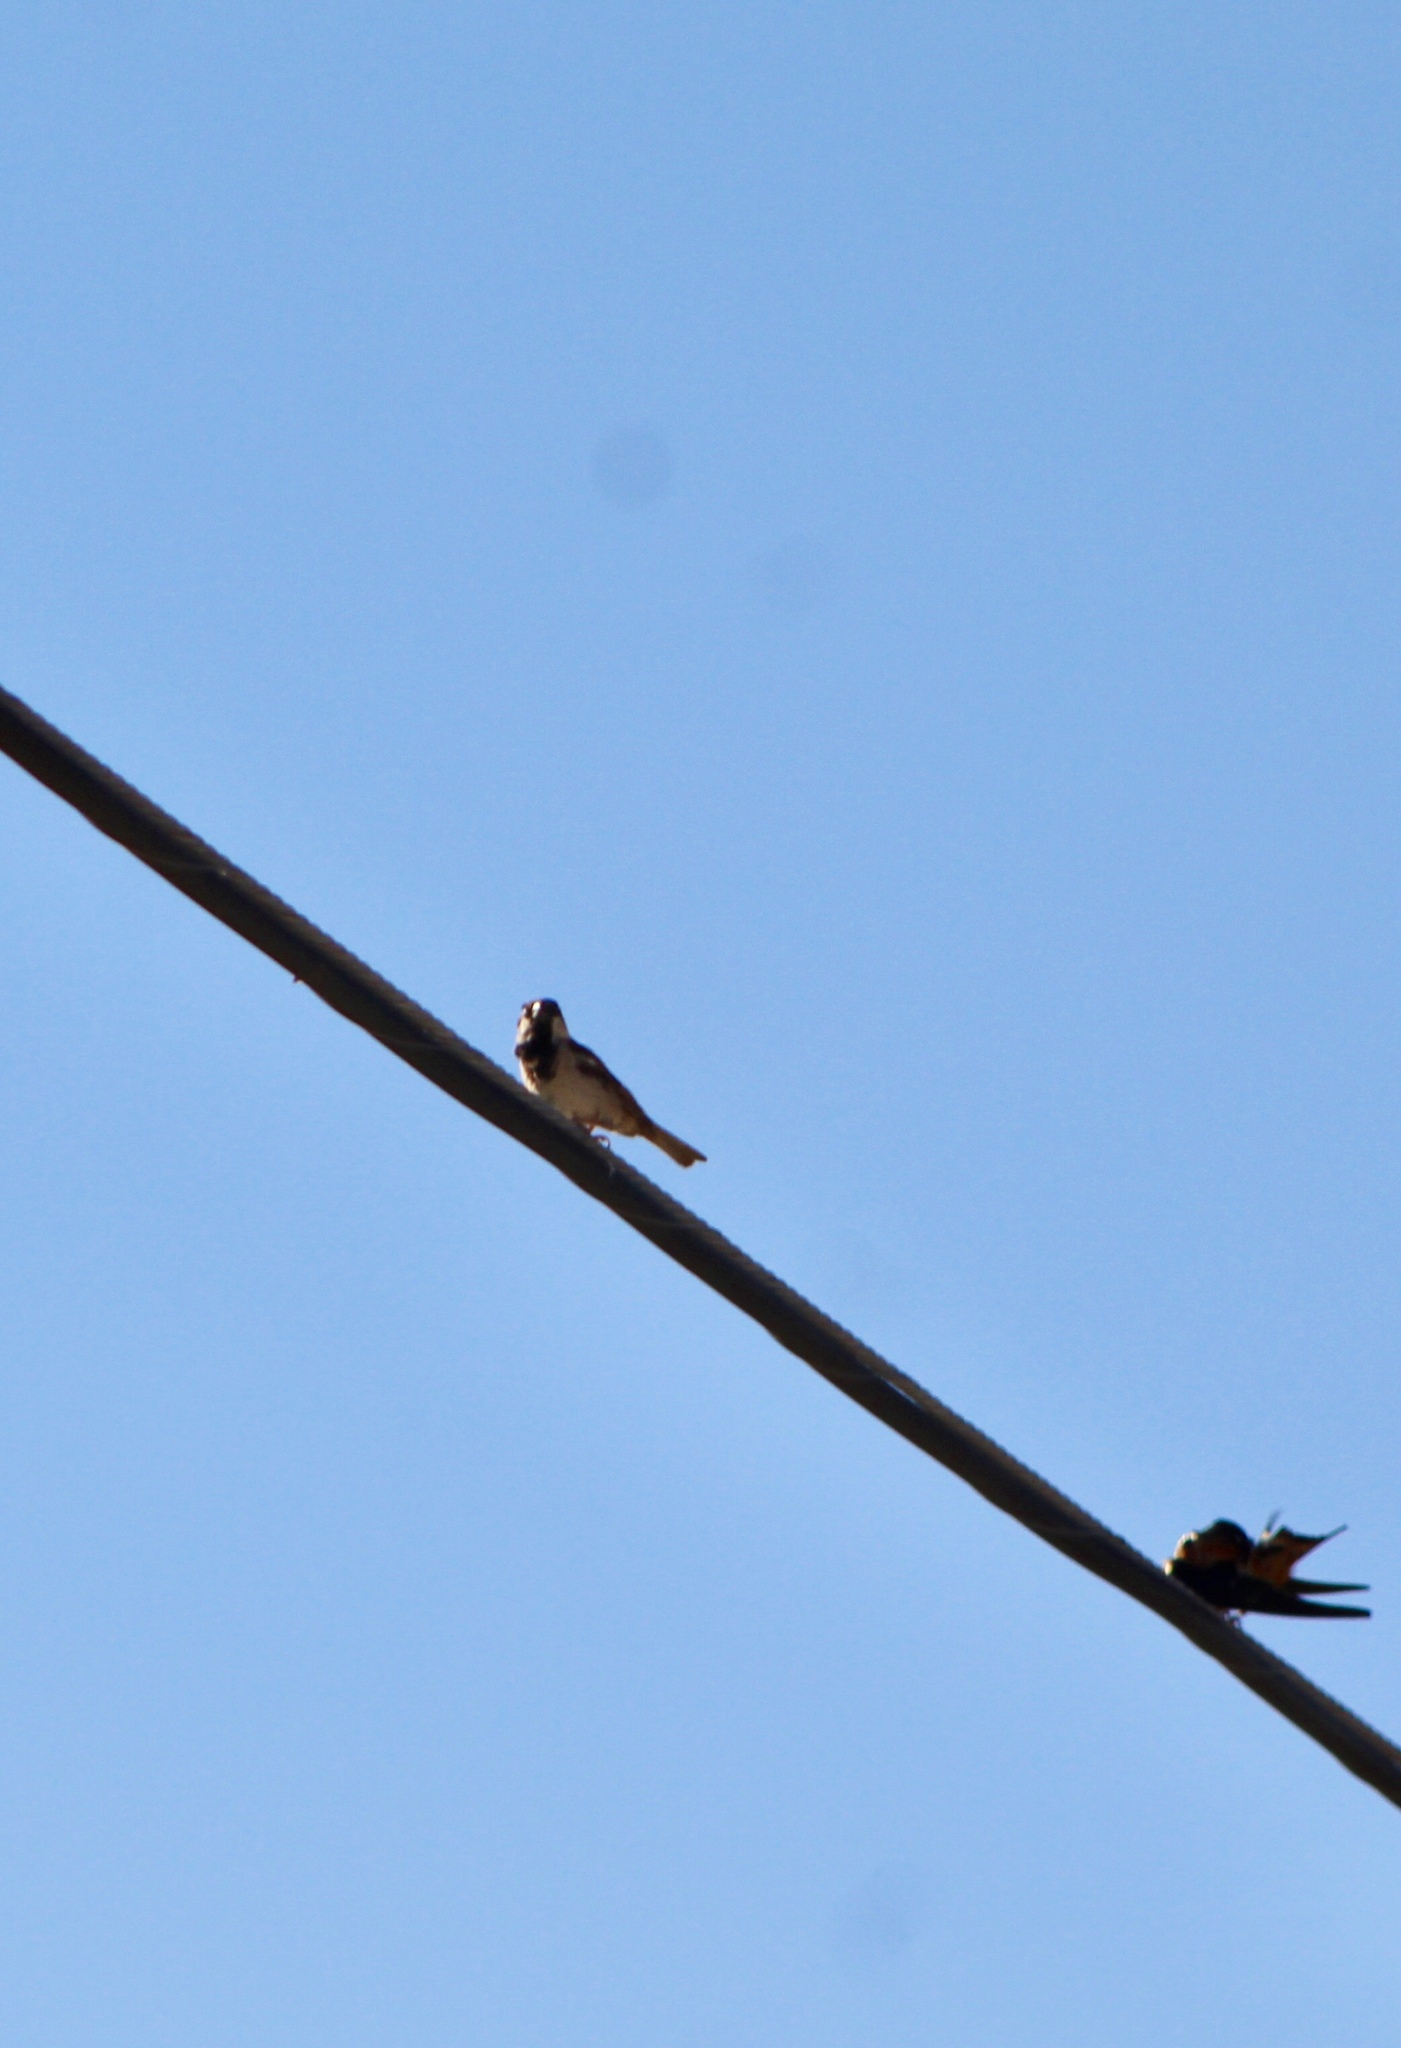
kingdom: Animalia
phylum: Chordata
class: Aves
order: Passeriformes
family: Passeridae
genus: Passer
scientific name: Passer domesticus
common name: House sparrow
